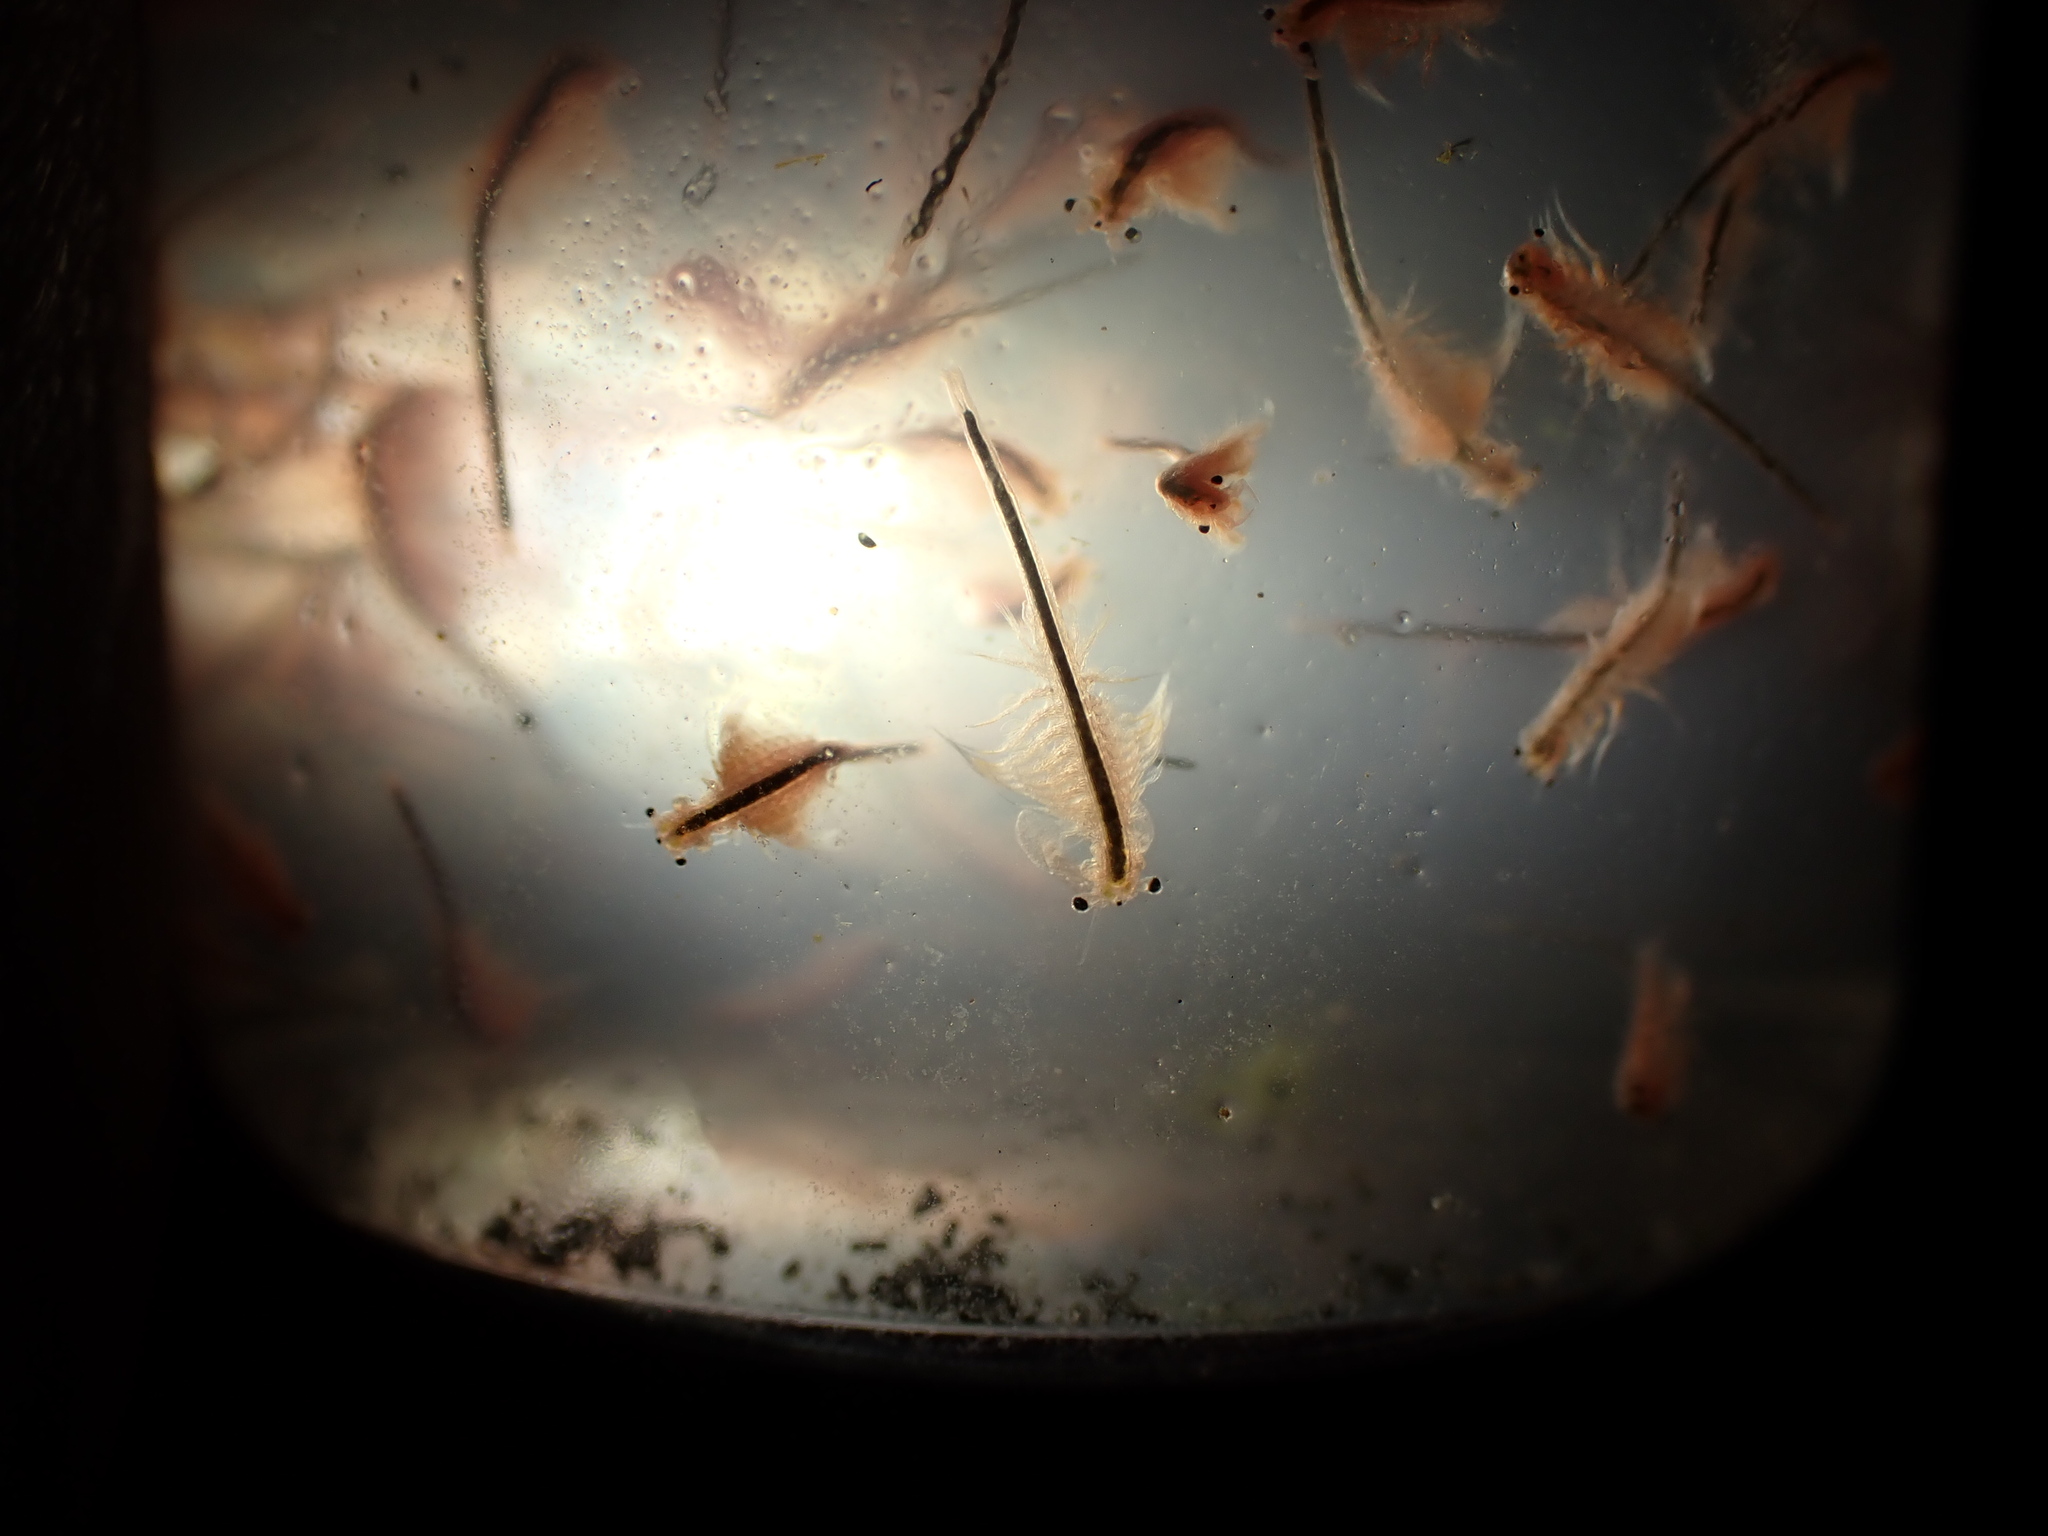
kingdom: Animalia
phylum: Arthropoda
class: Branchiopoda
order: Anostraca
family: Artemiidae
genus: Artemia
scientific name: Artemia monica
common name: Mono lake brine shrimp
